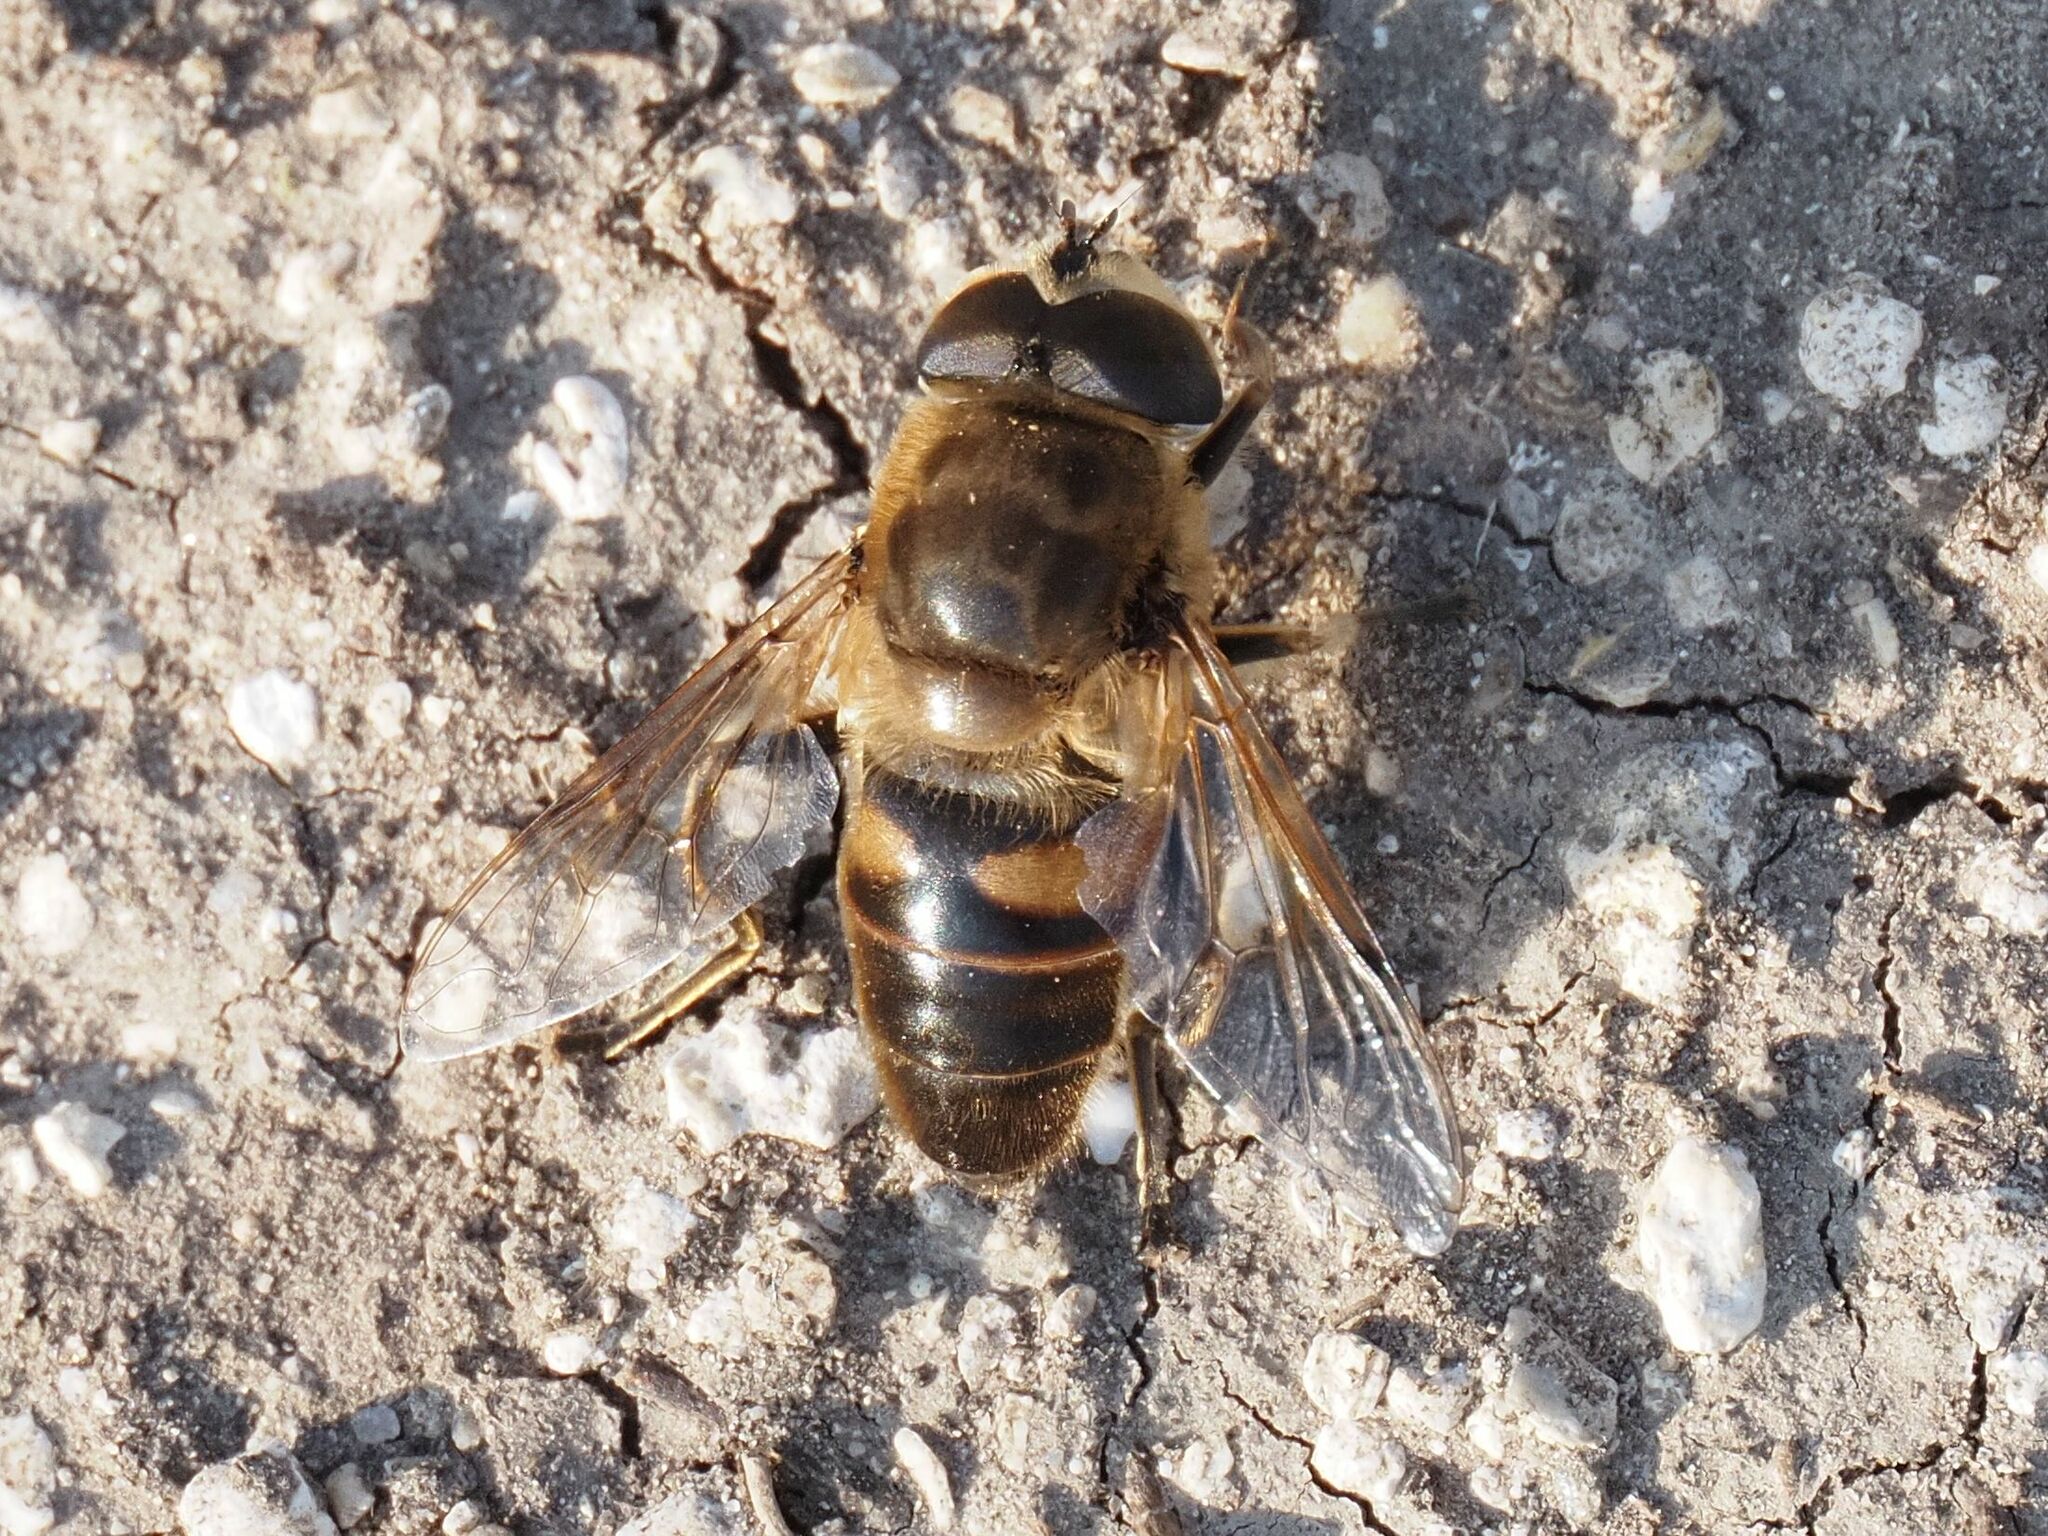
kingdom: Animalia
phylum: Arthropoda
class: Insecta
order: Diptera
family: Syrphidae
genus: Eristalis
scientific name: Eristalis tenax
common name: Drone fly
